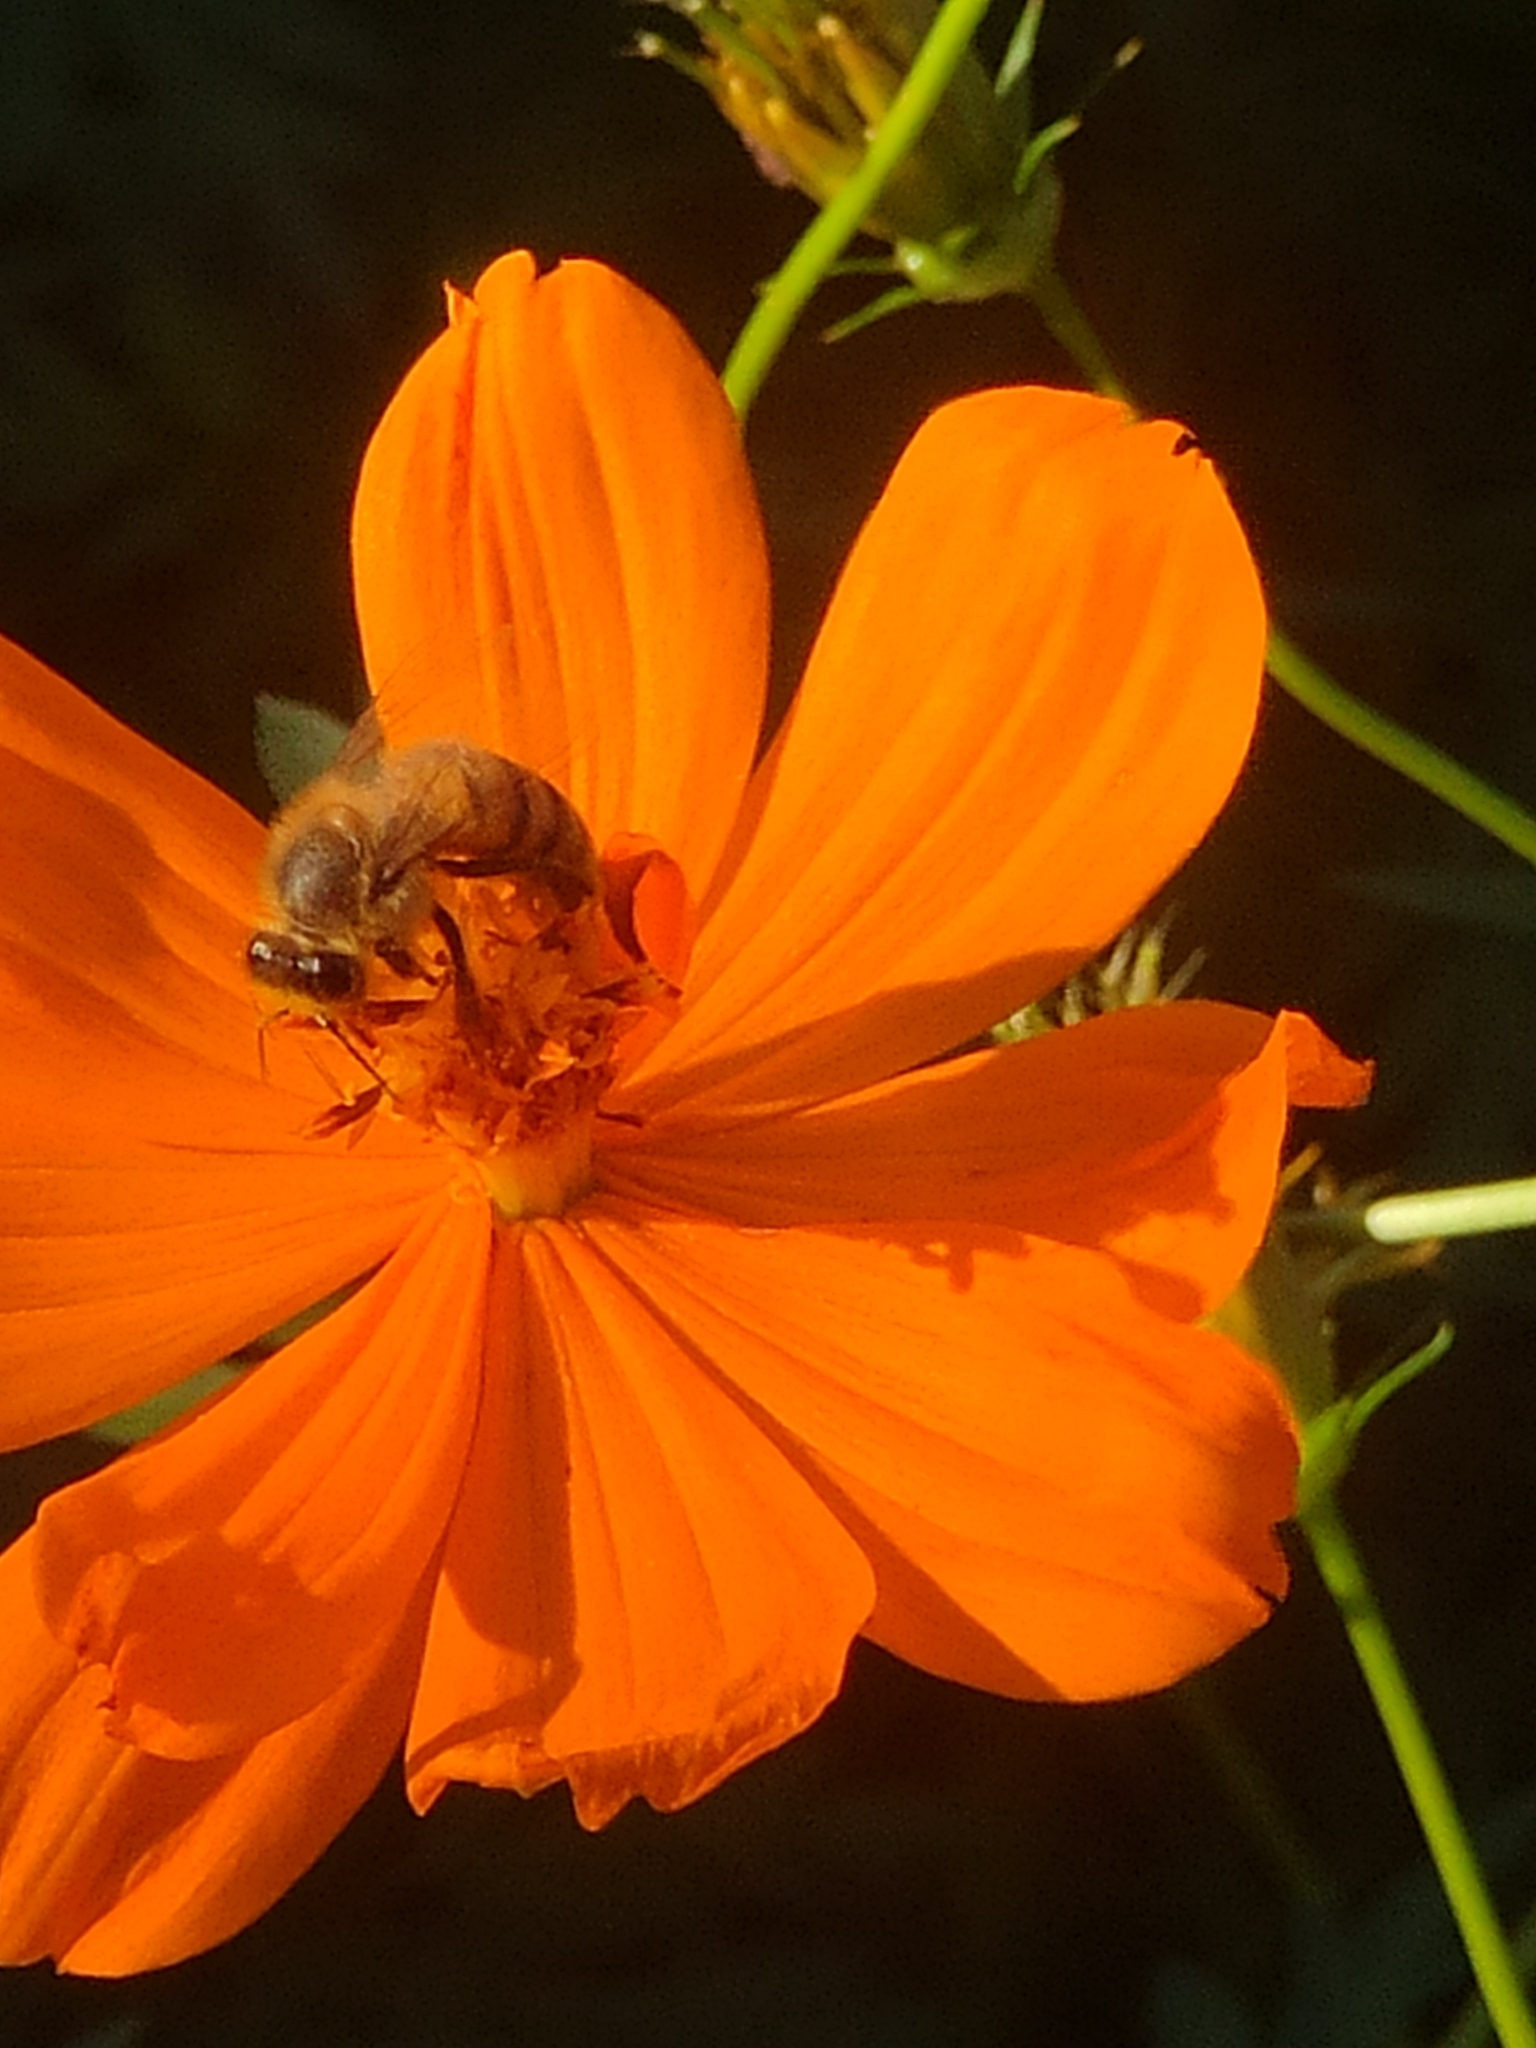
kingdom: Animalia
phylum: Arthropoda
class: Insecta
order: Hymenoptera
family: Apidae
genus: Apis
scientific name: Apis mellifera
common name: Honey bee
